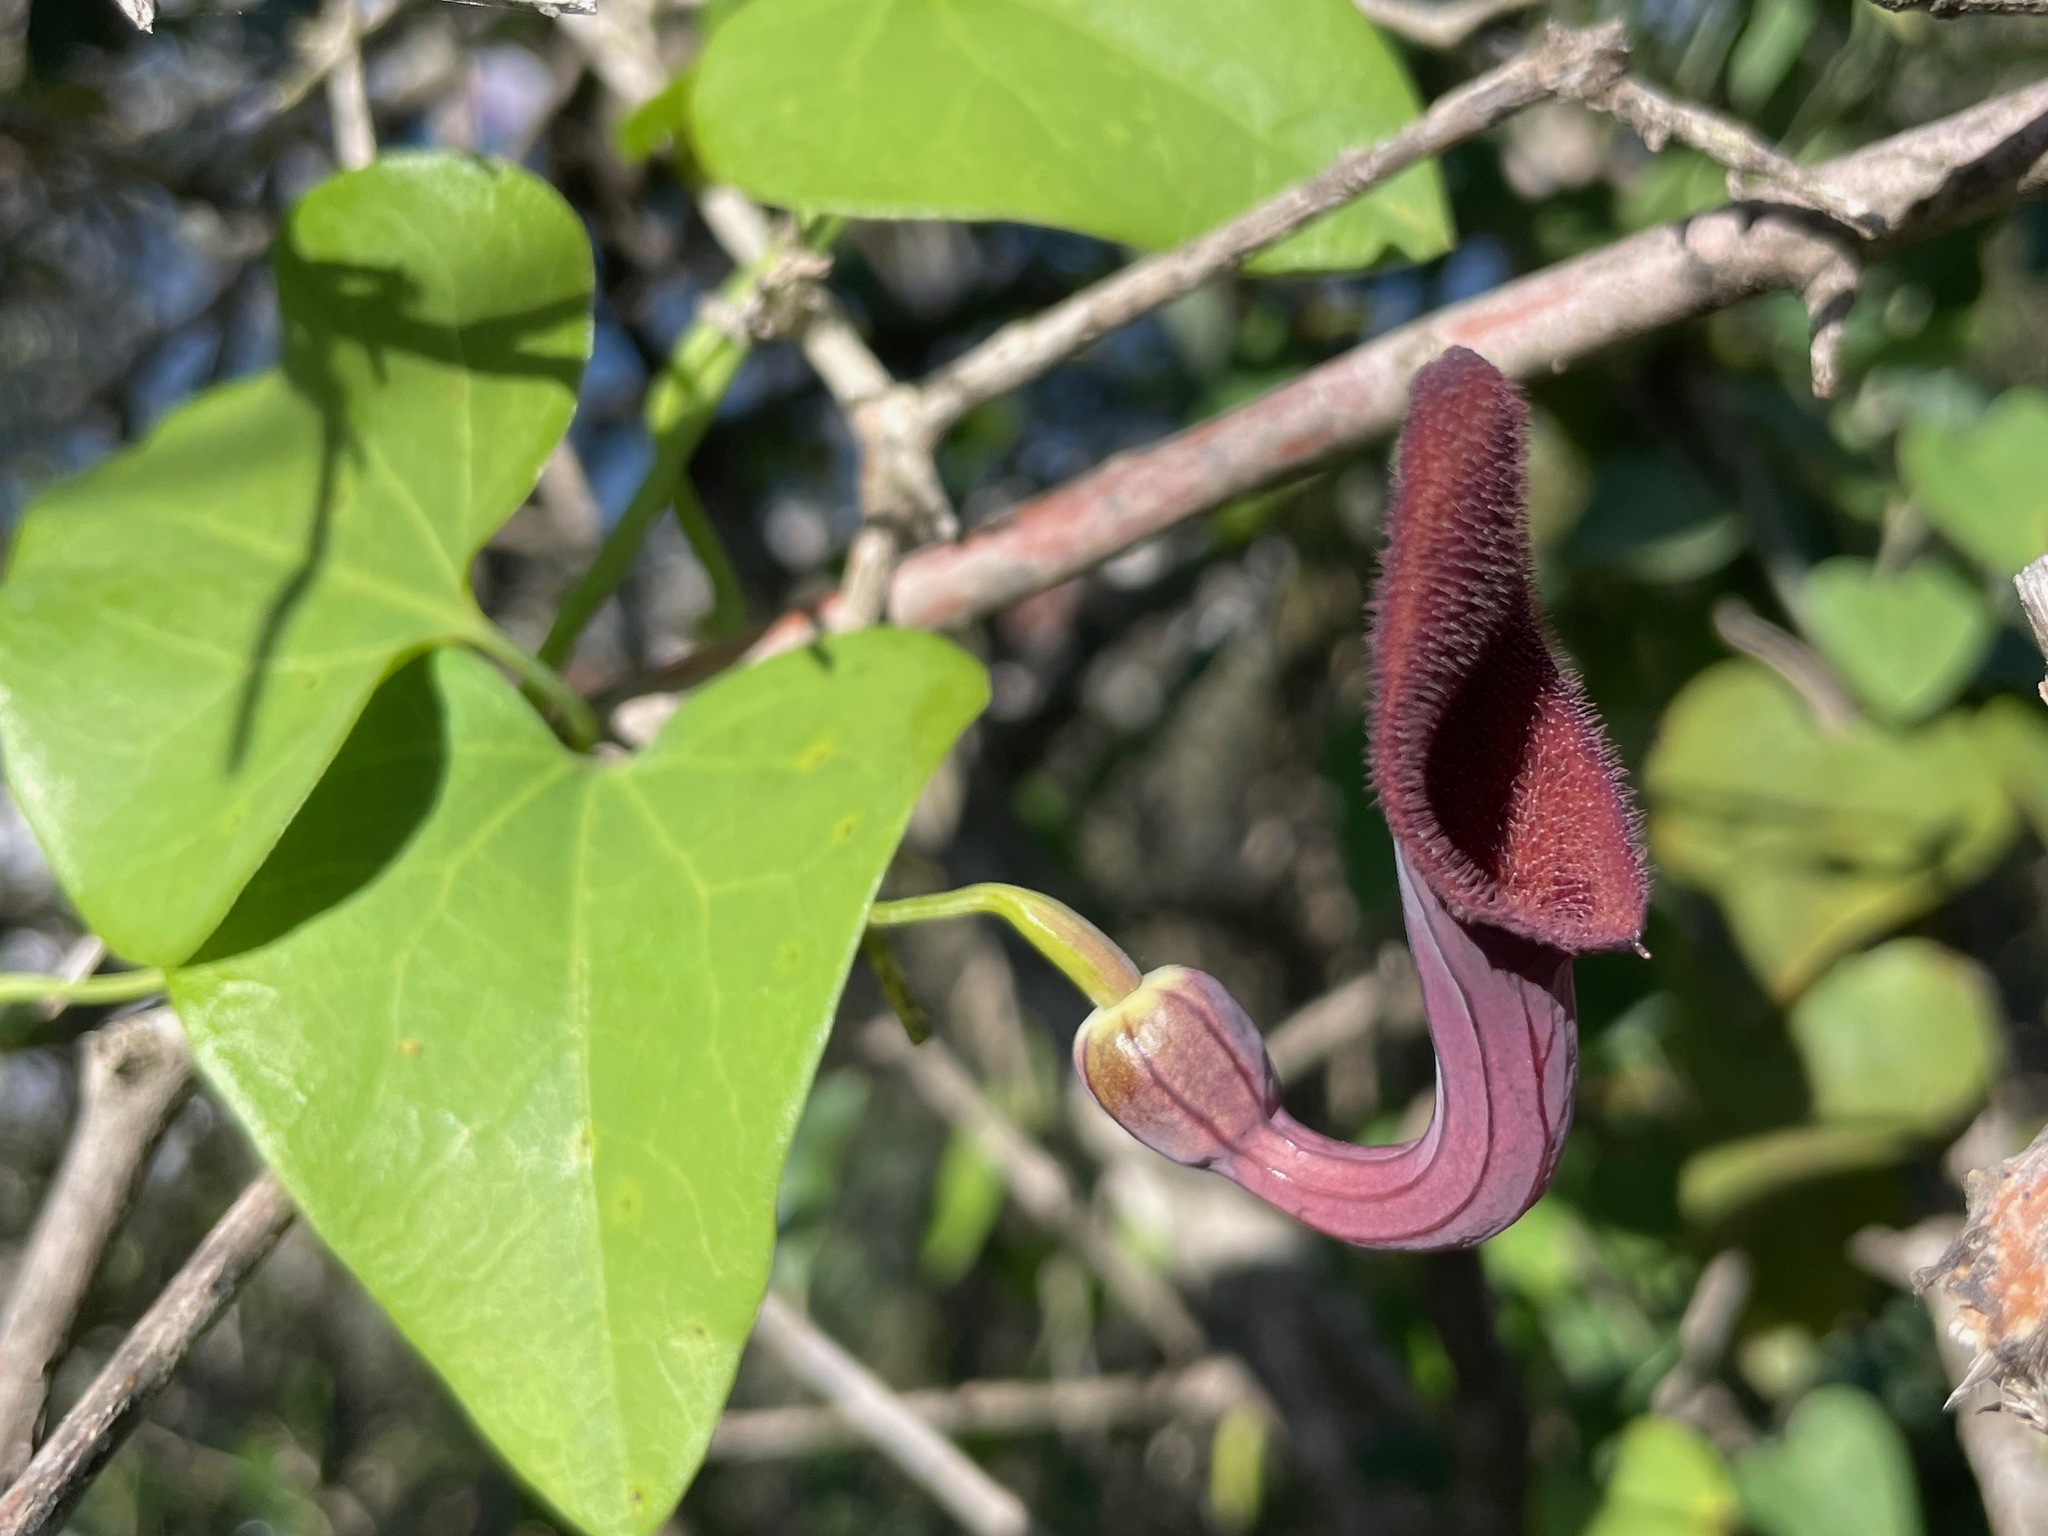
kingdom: Plantae
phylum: Tracheophyta
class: Magnoliopsida
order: Piperales
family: Aristolochiaceae
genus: Aristolochia
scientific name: Aristolochia baetica
